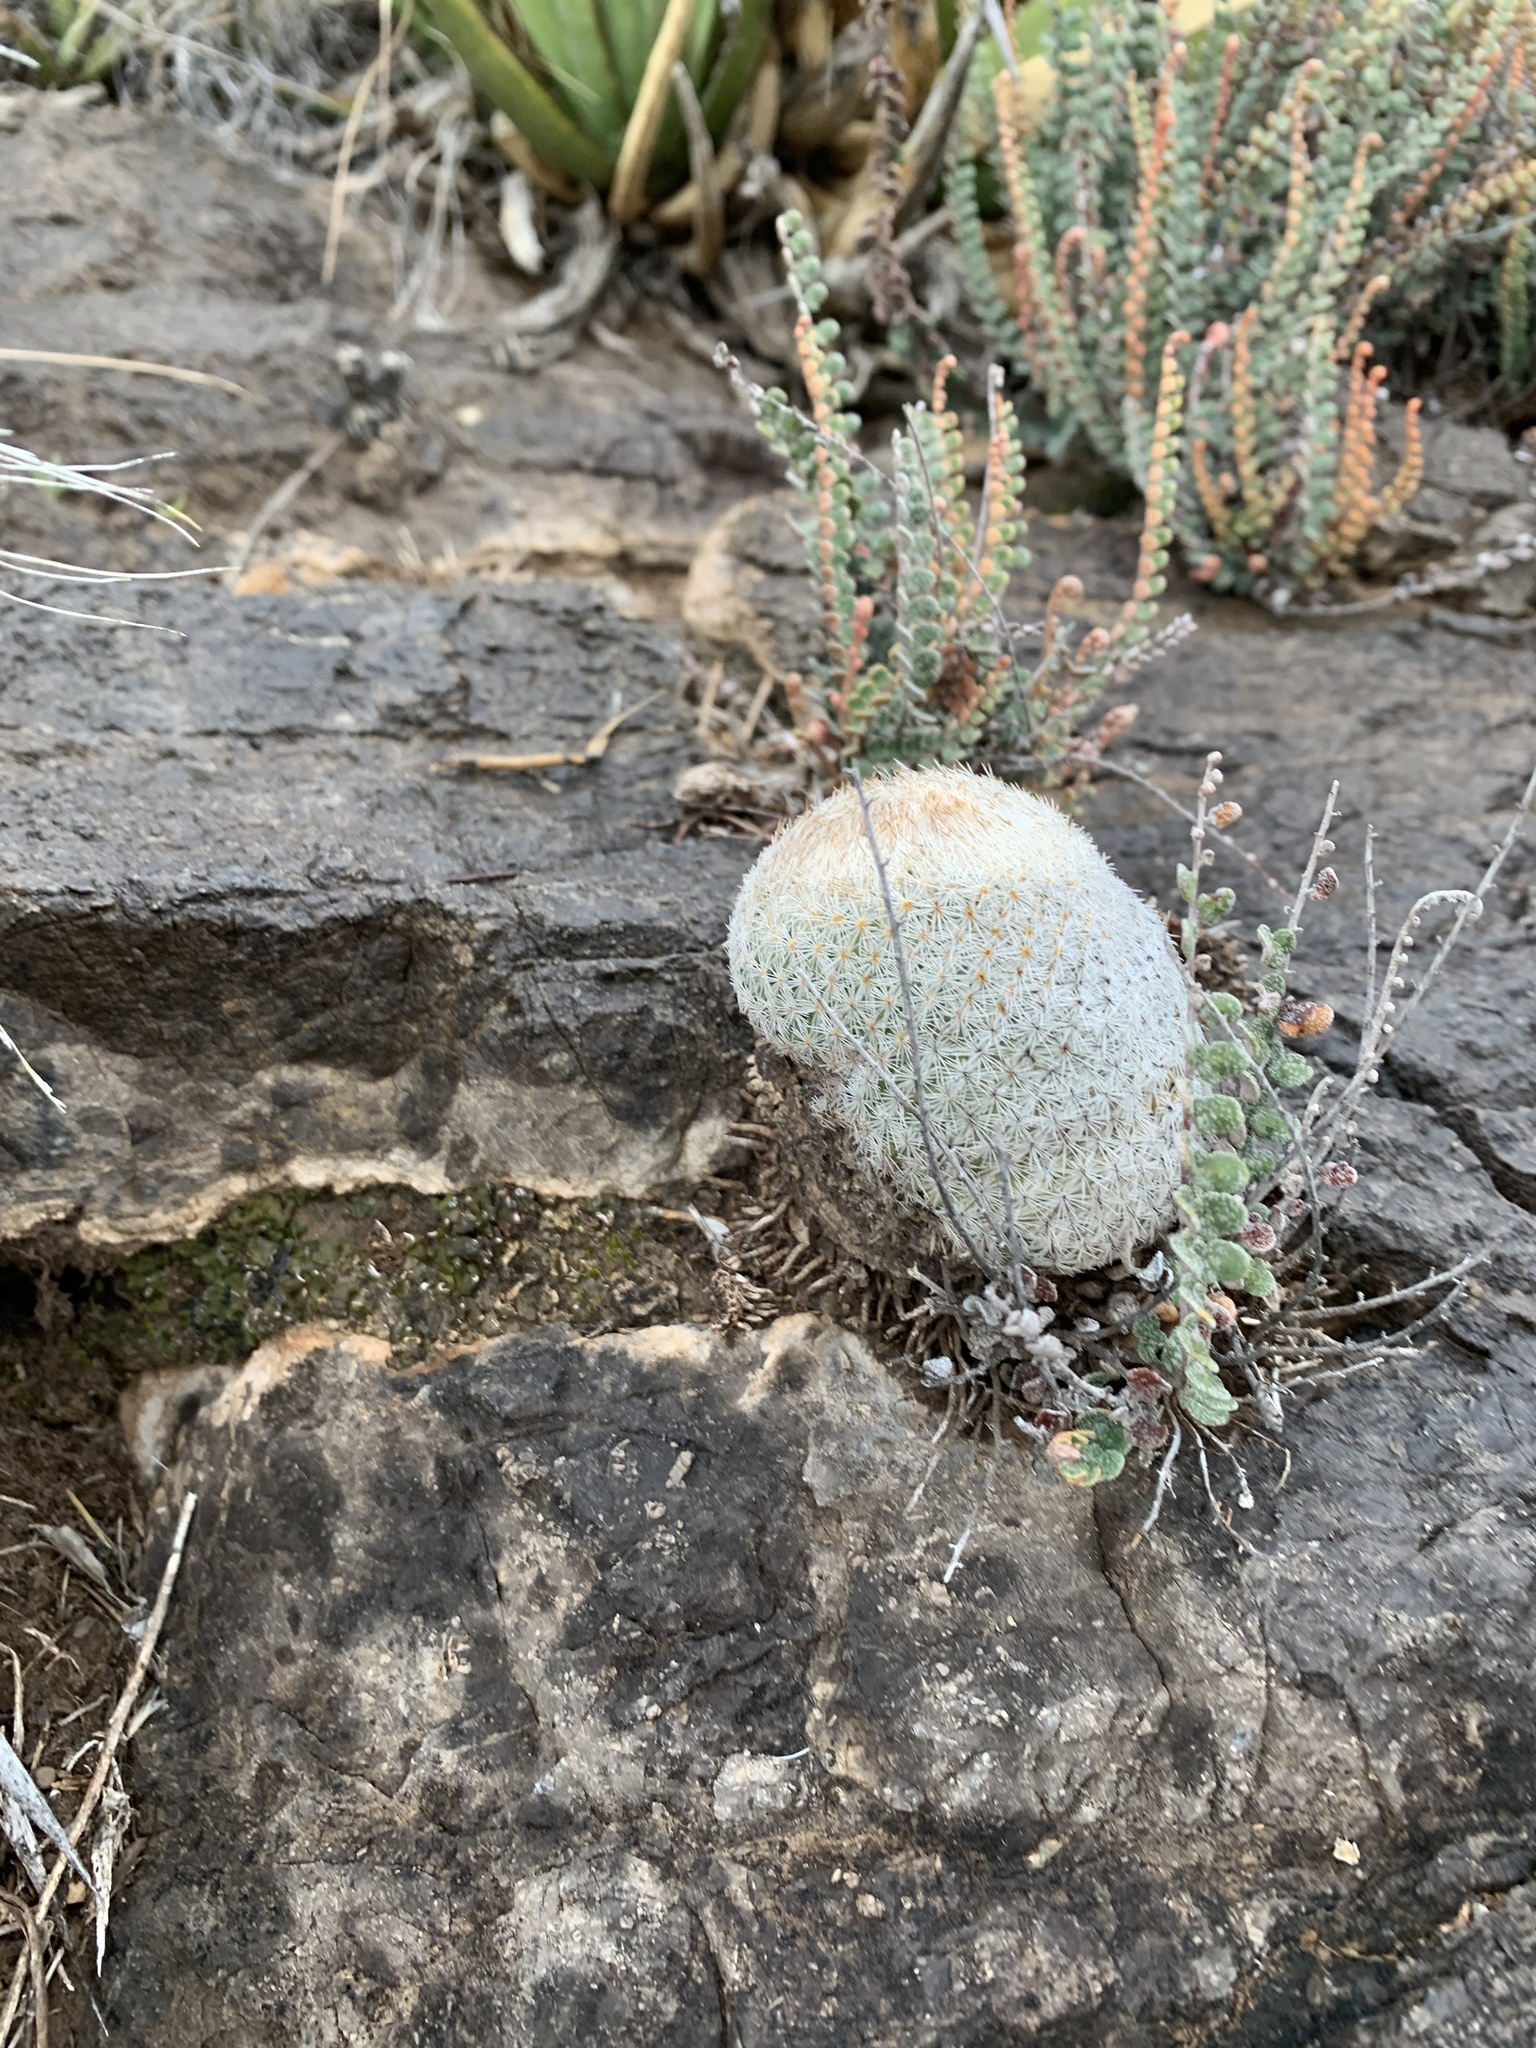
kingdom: Plantae
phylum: Tracheophyta
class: Magnoliopsida
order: Caryophyllales
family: Cactaceae
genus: Epithelantha
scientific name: Epithelantha micromeris
